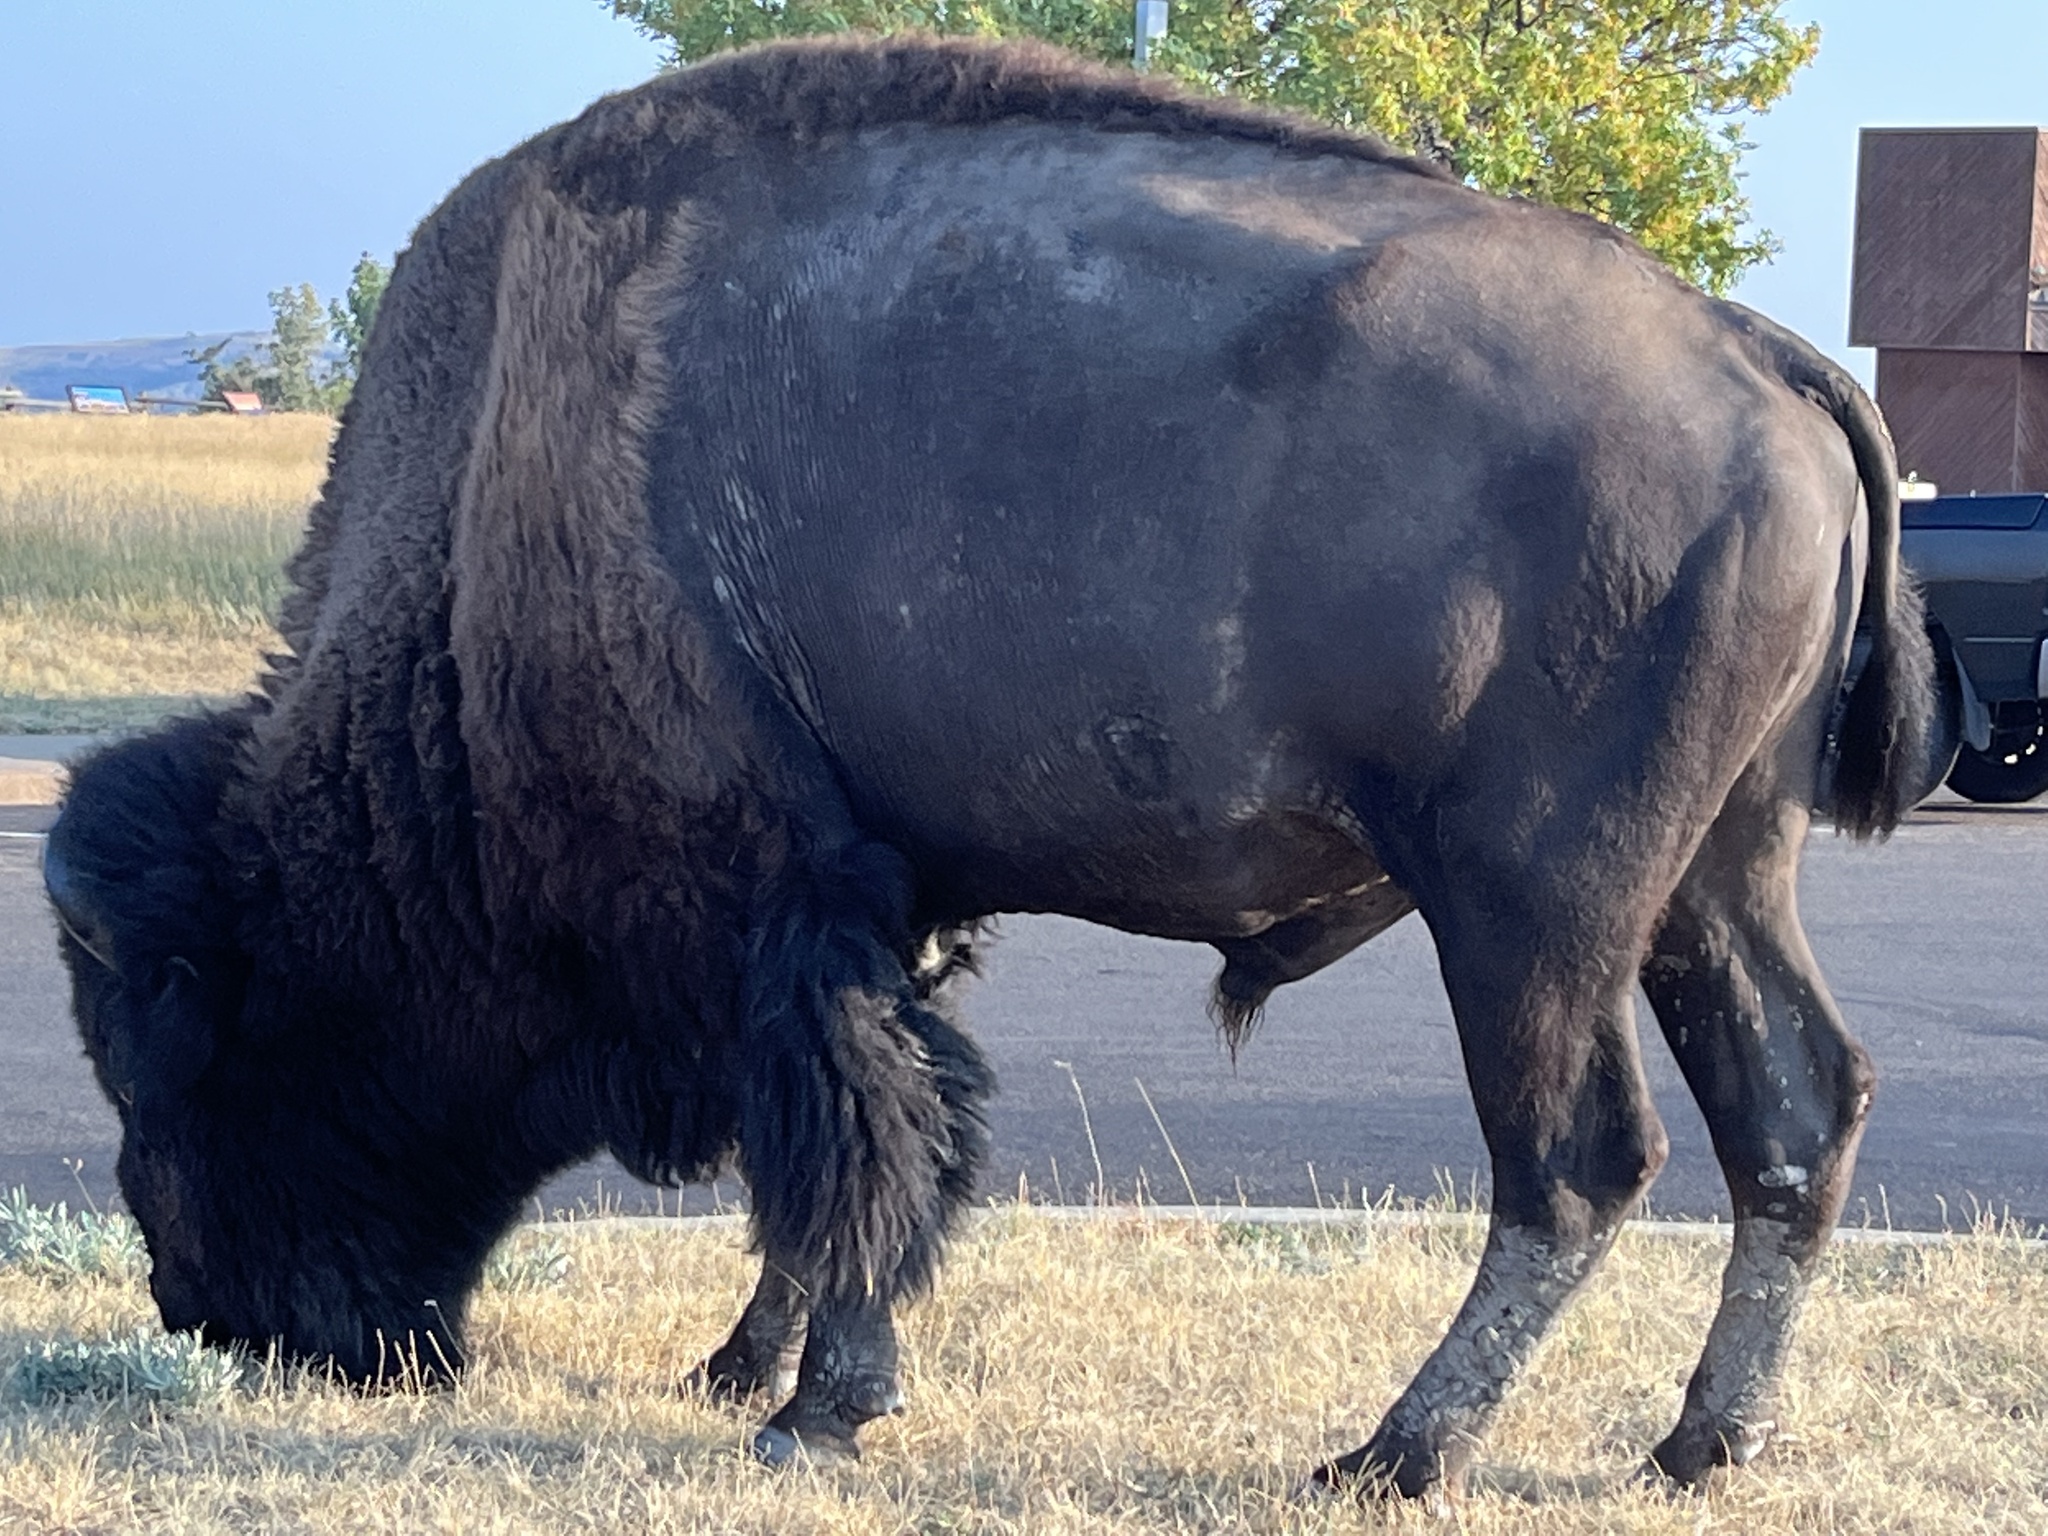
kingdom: Animalia
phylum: Chordata
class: Mammalia
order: Artiodactyla
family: Bovidae
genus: Bison
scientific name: Bison bison
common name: American bison
